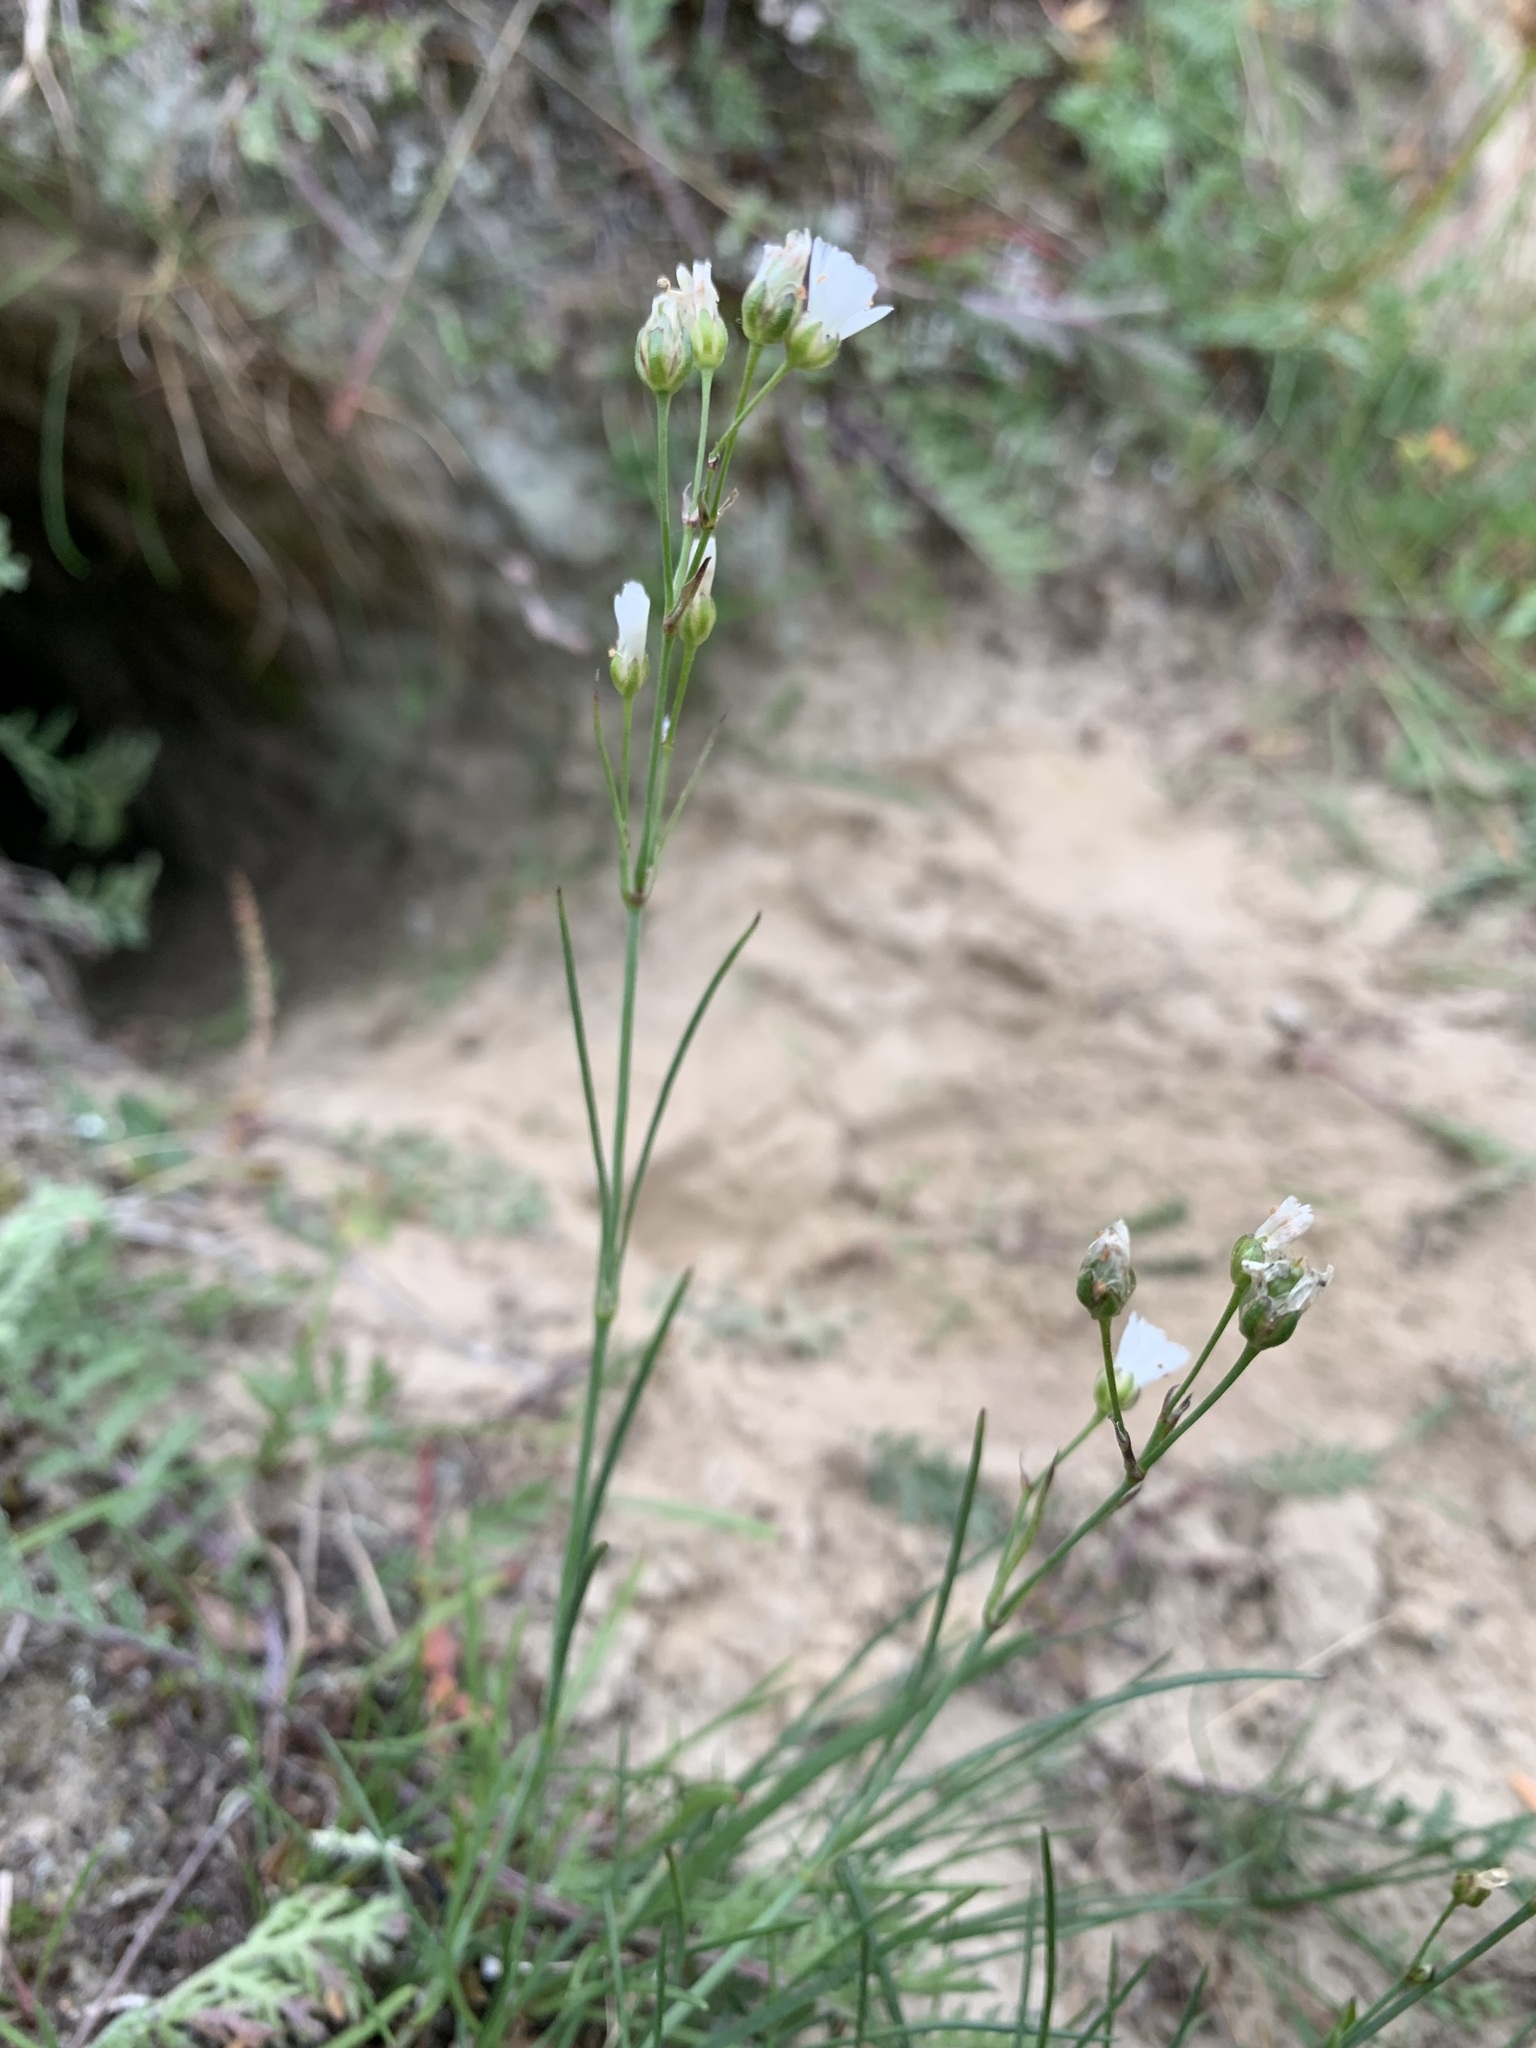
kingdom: Plantae
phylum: Tracheophyta
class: Magnoliopsida
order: Caryophyllales
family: Caryophyllaceae
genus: Eremogone
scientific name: Eremogone polaris
